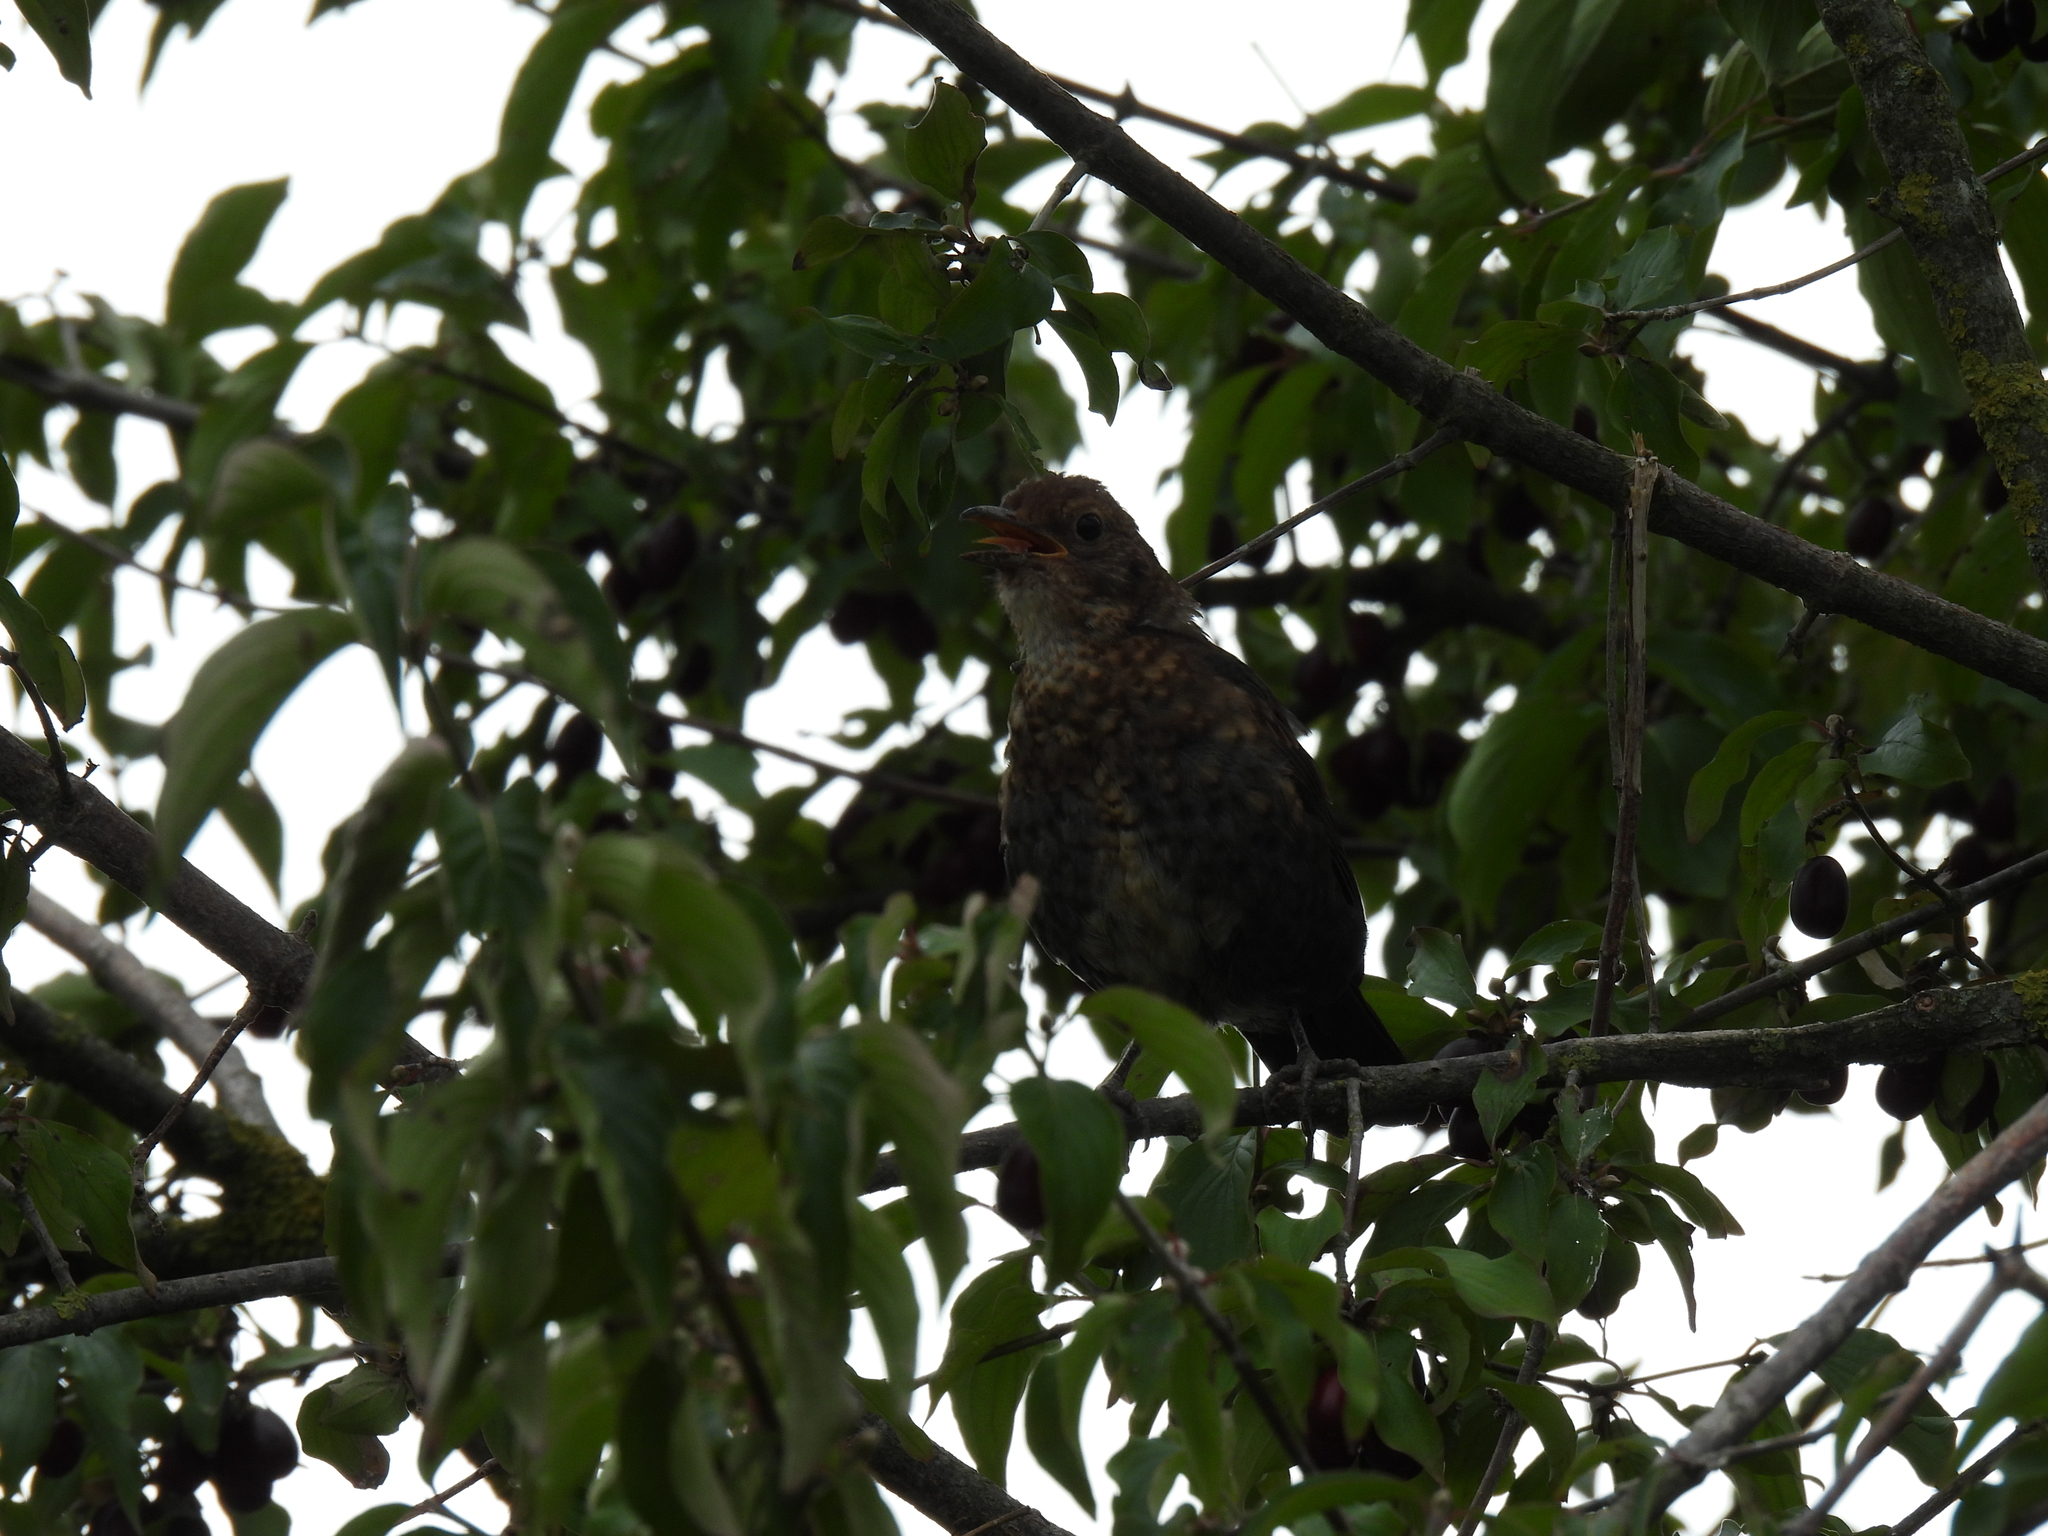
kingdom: Animalia
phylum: Chordata
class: Aves
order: Passeriformes
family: Turdidae
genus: Turdus
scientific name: Turdus merula
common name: Common blackbird
